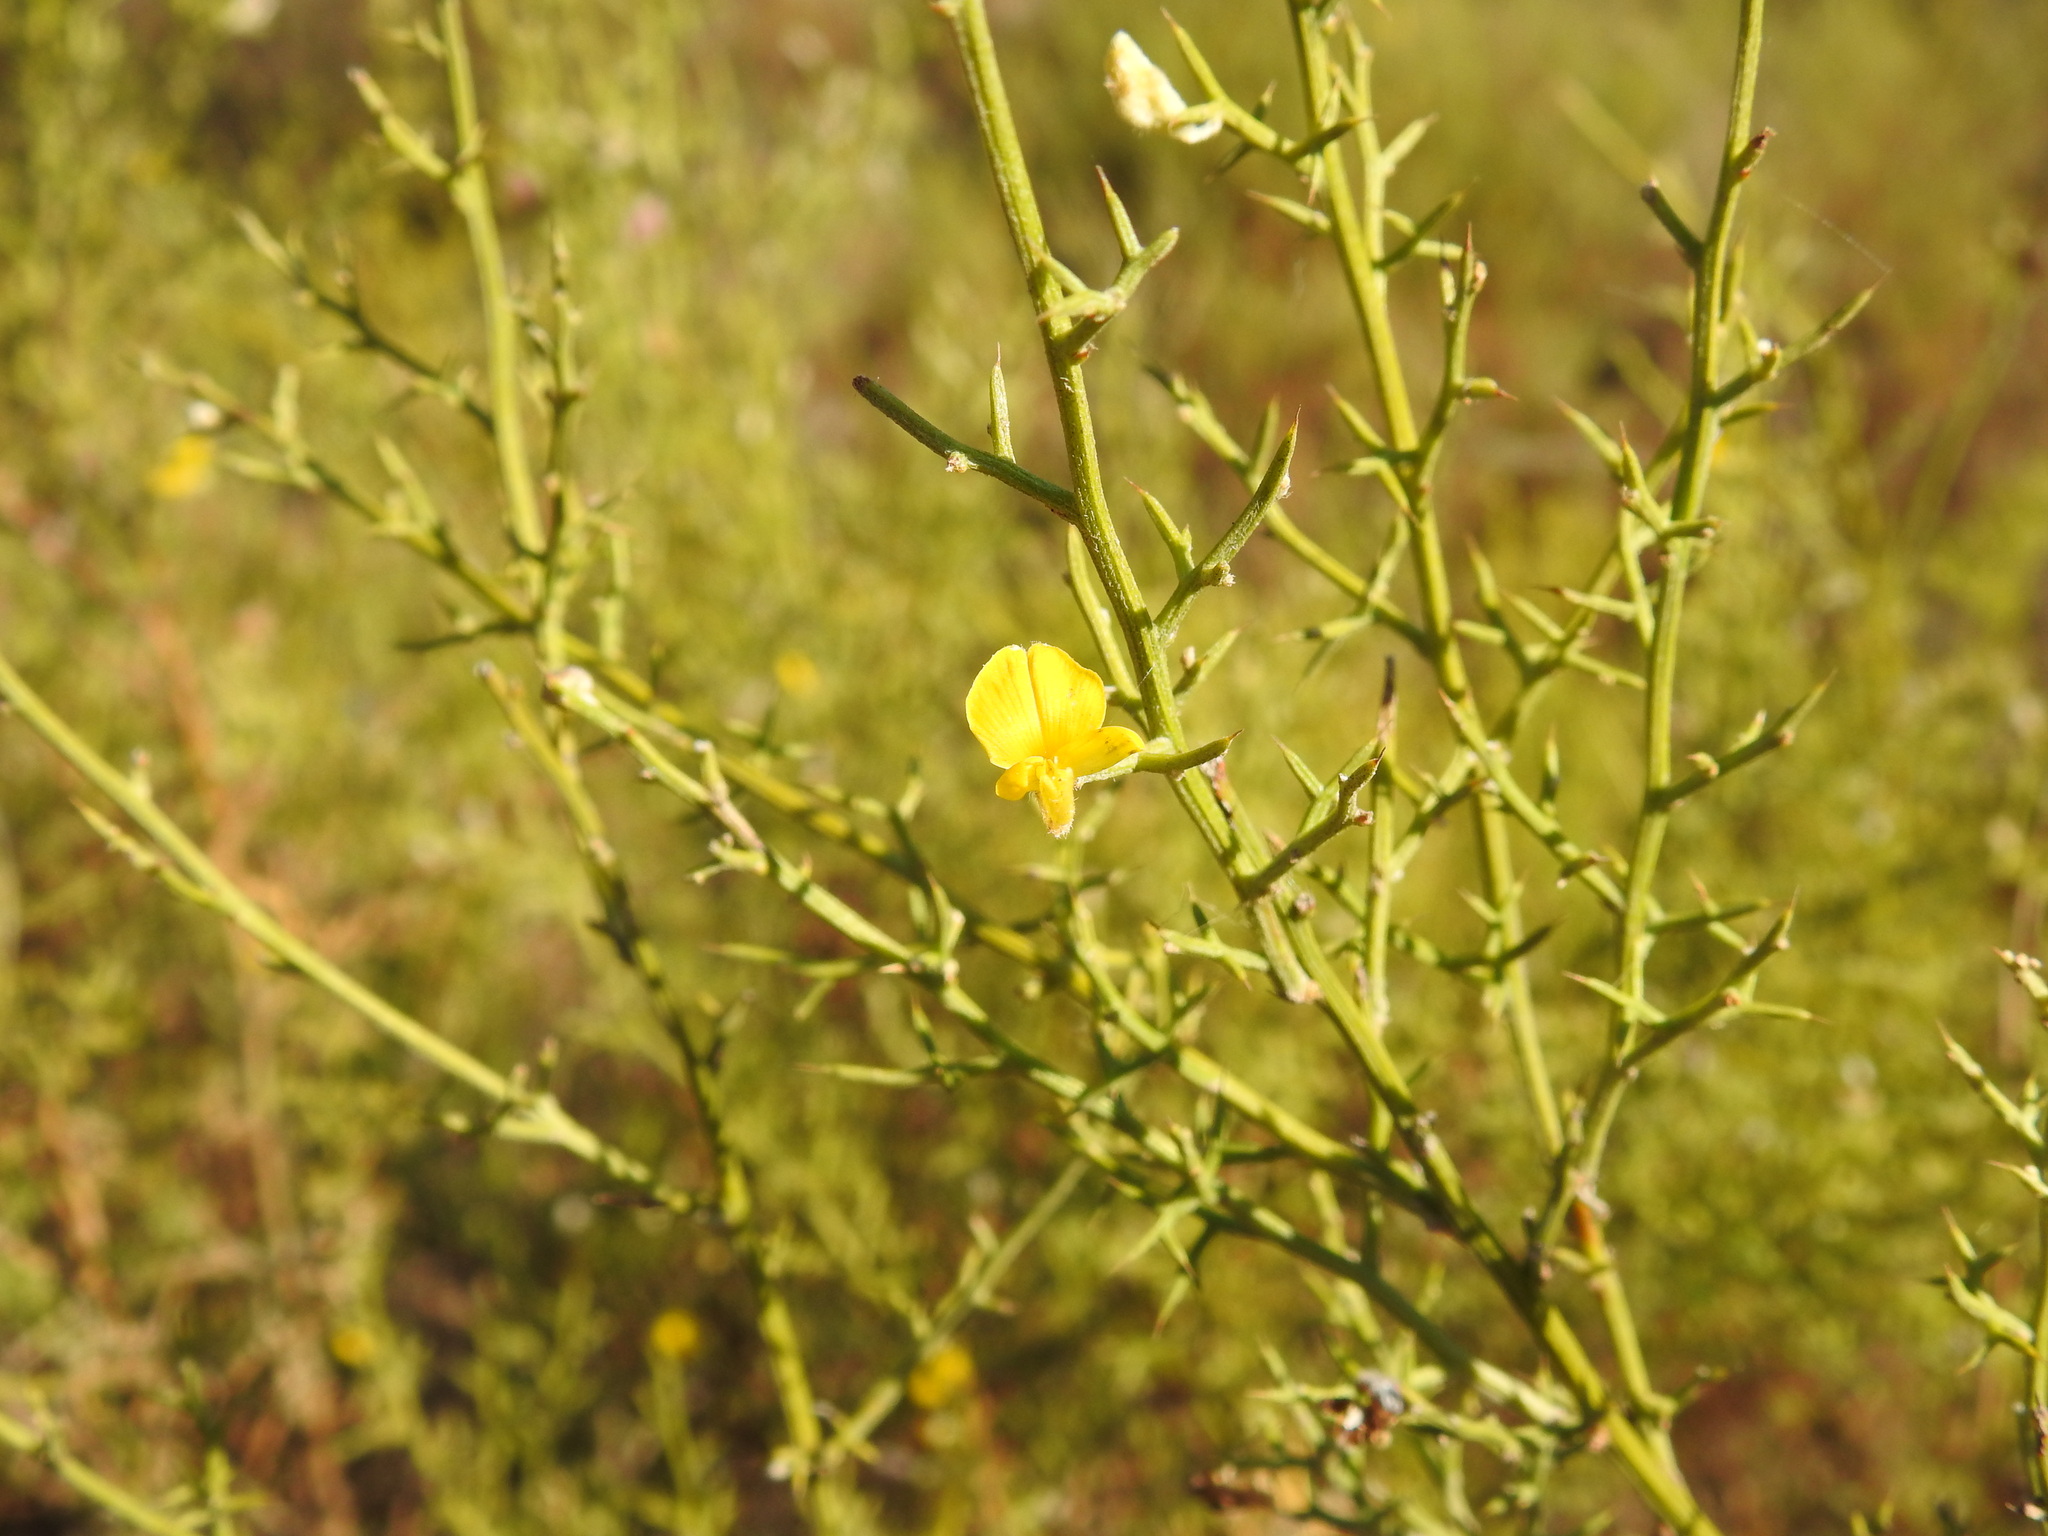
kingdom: Plantae
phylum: Tracheophyta
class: Magnoliopsida
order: Fabales
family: Fabaceae
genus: Stauracanthus
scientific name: Stauracanthus boivinii
